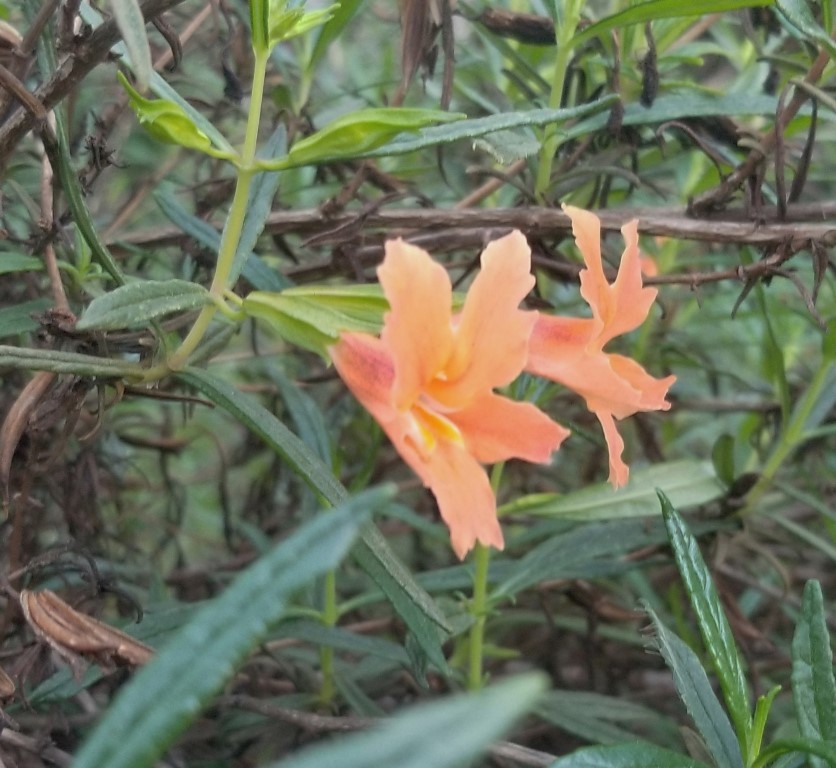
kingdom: Plantae
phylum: Tracheophyta
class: Magnoliopsida
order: Lamiales
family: Phrymaceae
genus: Diplacus
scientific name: Diplacus australis
